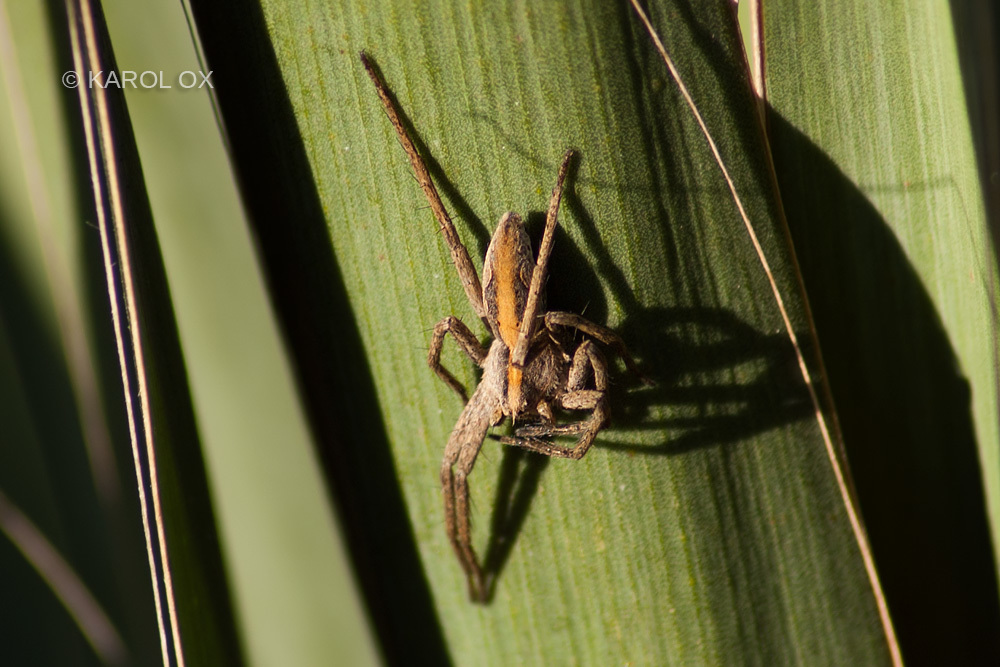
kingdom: Animalia
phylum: Arthropoda
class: Arachnida
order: Araneae
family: Pisauridae
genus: Pisaura
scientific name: Pisaura mirabilis
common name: Tent spider
